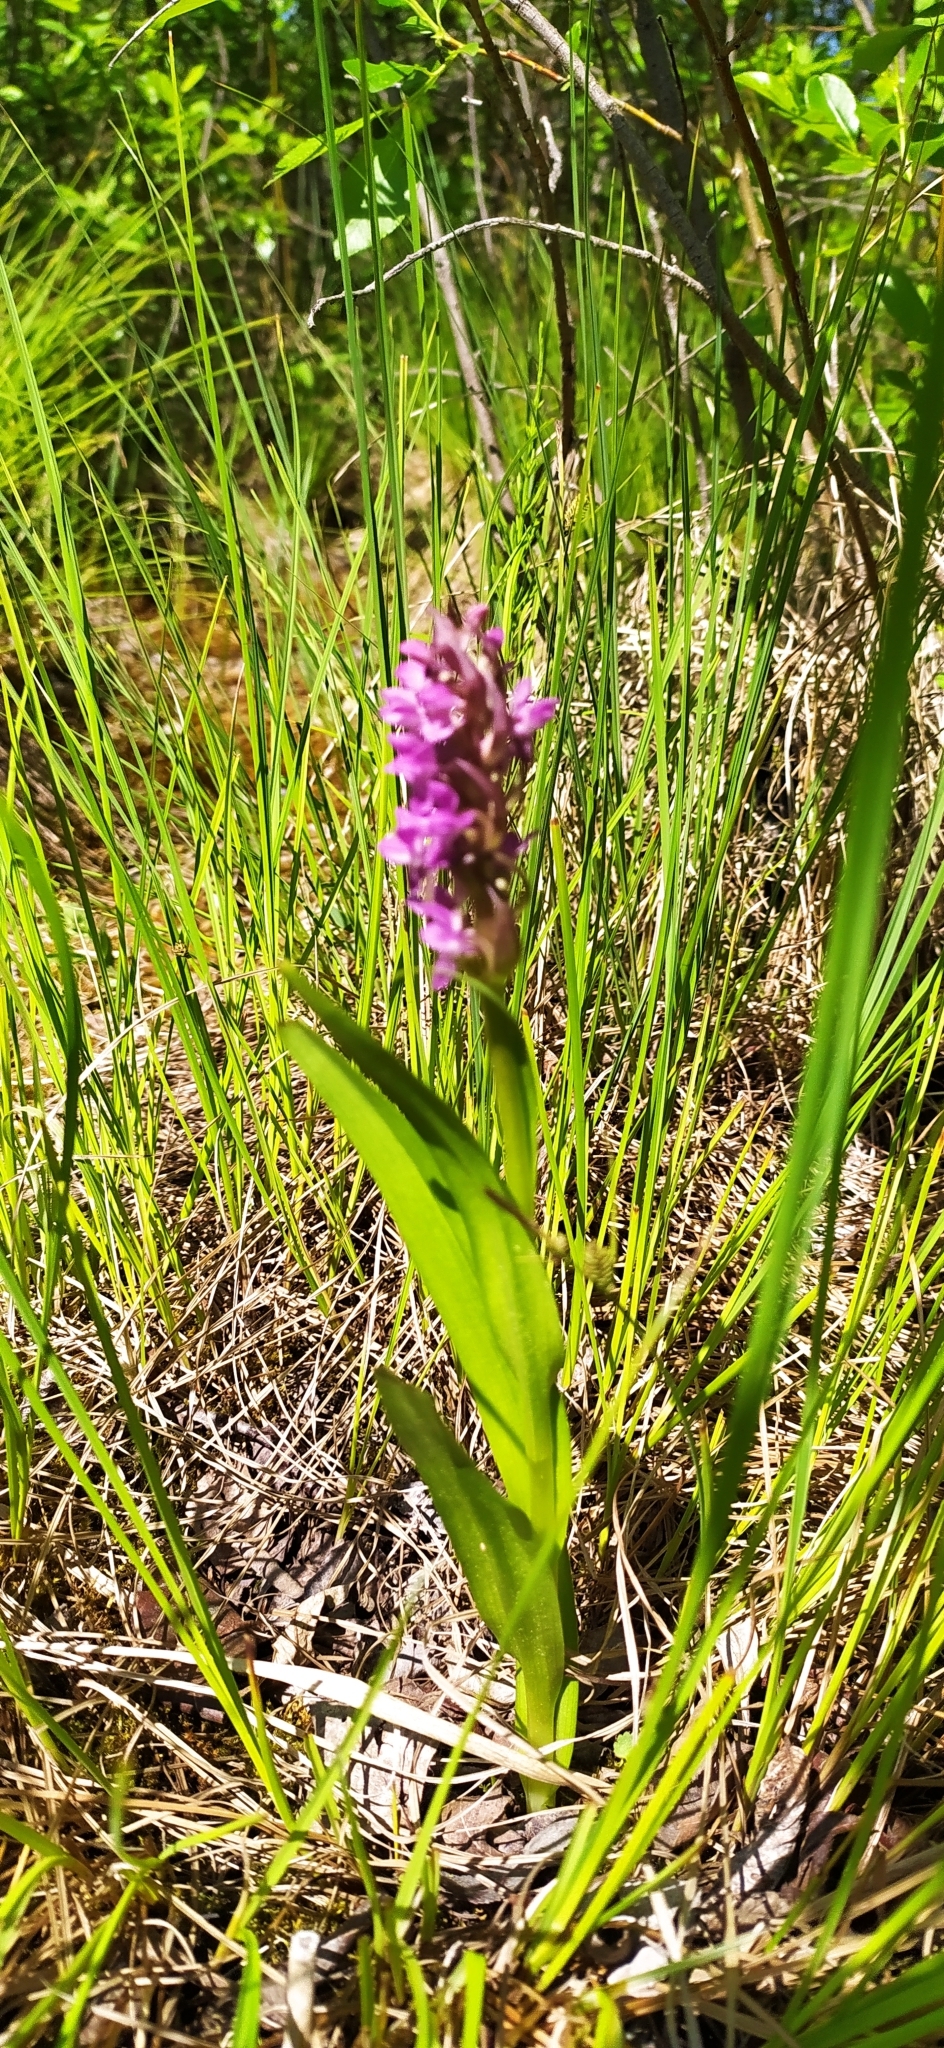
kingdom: Plantae
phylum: Tracheophyta
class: Liliopsida
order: Asparagales
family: Orchidaceae
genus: Dactylorhiza
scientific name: Dactylorhiza incarnata
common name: Early marsh-orchid
